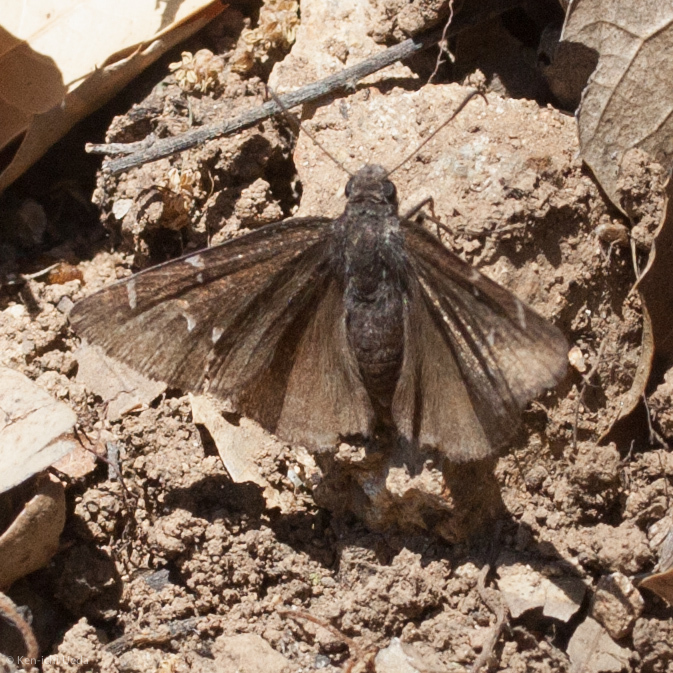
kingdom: Animalia
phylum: Arthropoda
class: Insecta
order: Lepidoptera
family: Hesperiidae
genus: Thorybes
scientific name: Thorybes pylades
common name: Northern cloudywing
